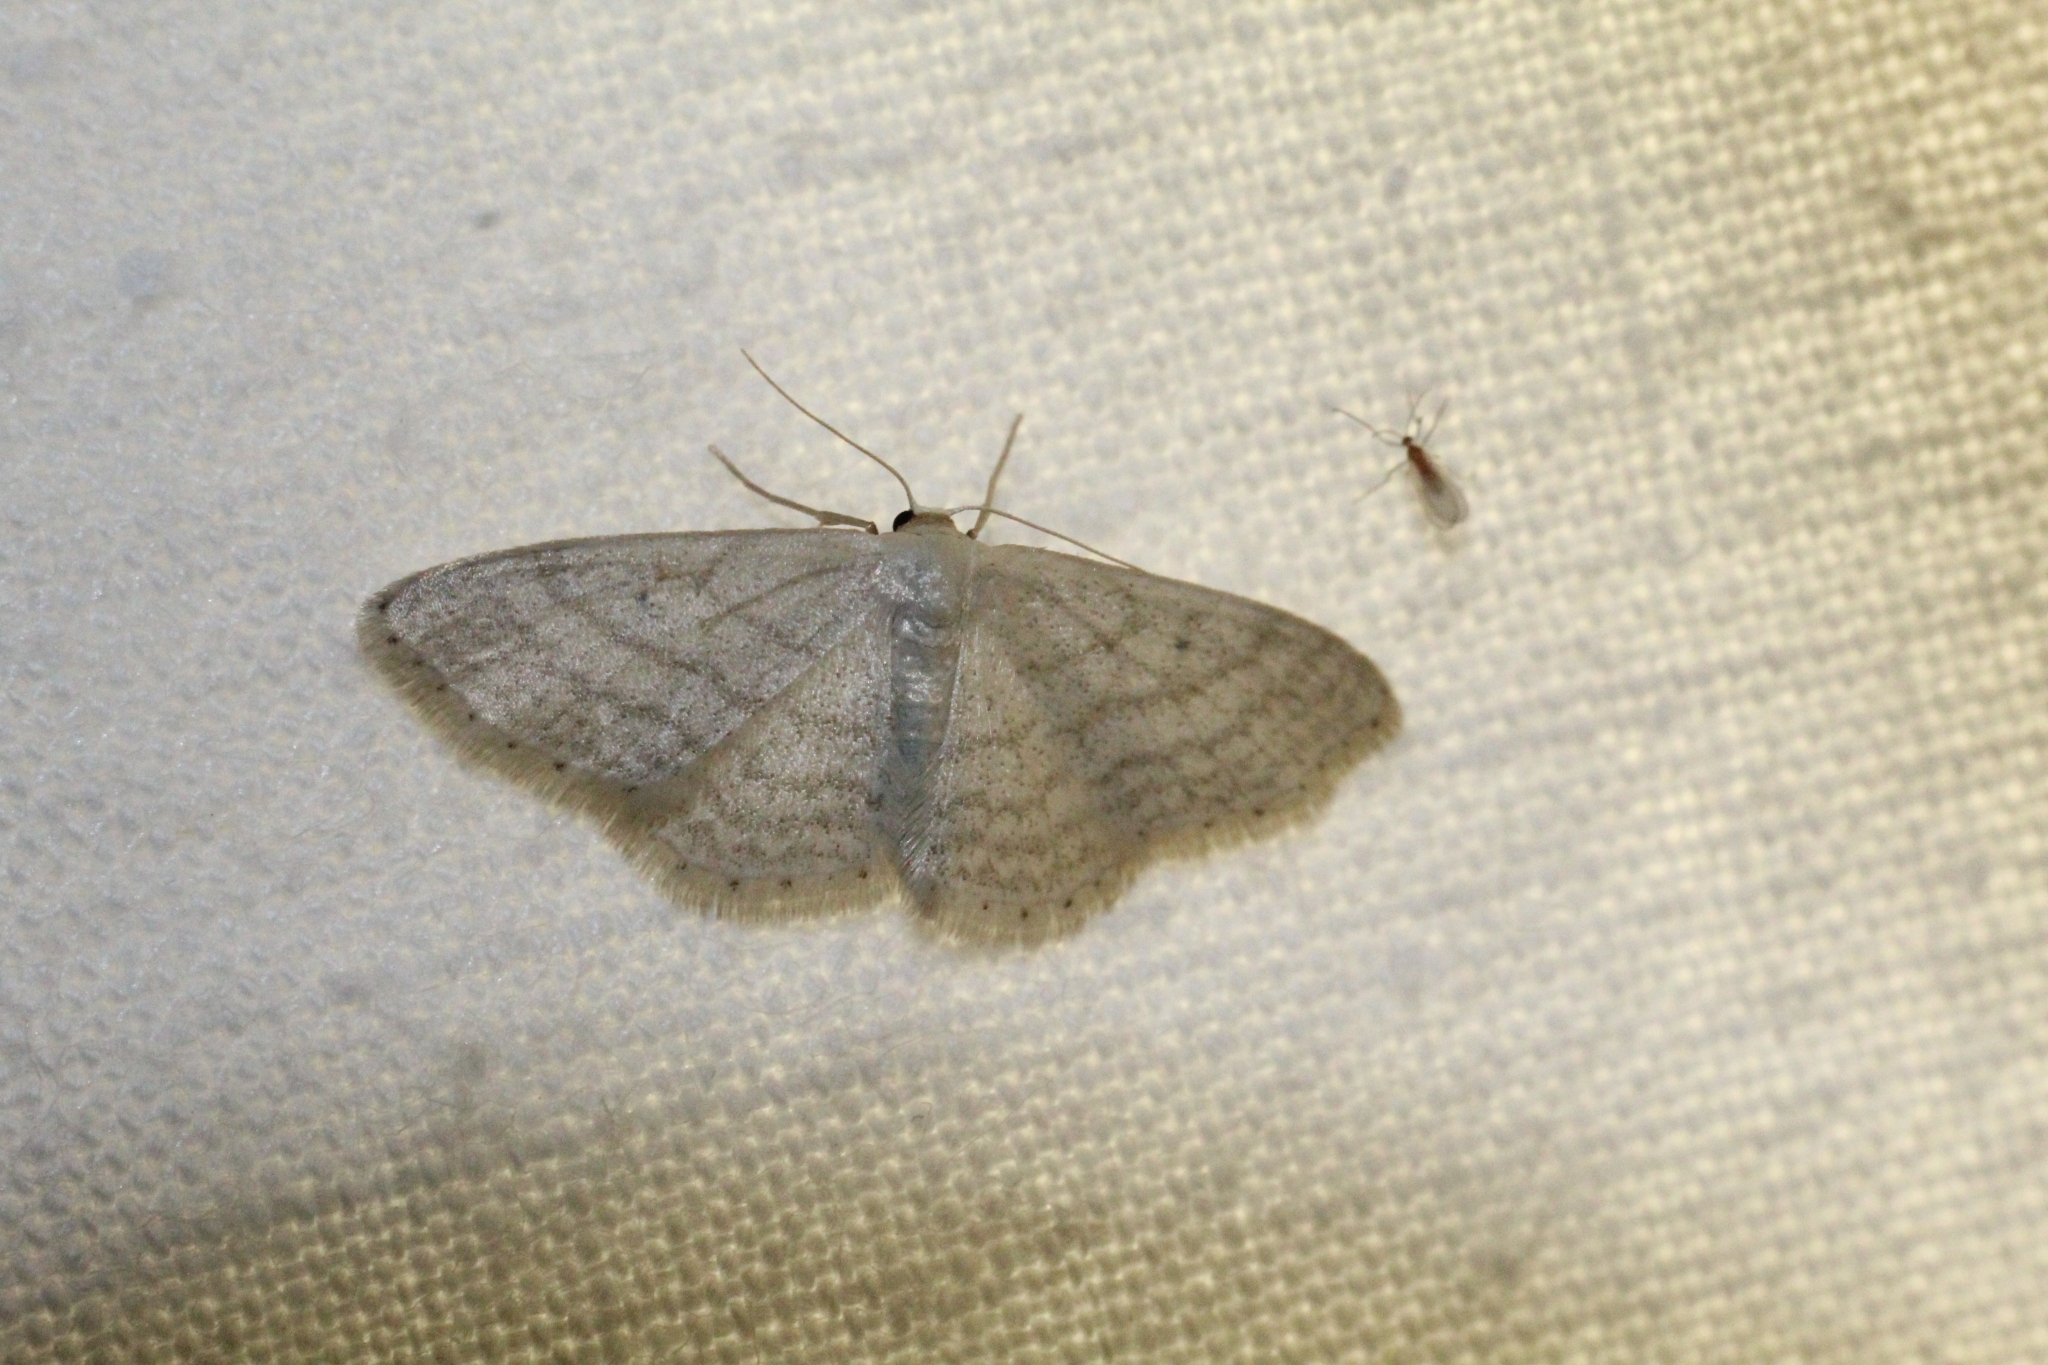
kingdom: Animalia
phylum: Arthropoda
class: Insecta
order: Lepidoptera
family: Geometridae
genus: Idaea
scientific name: Idaea subsericeata
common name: Satin wave
